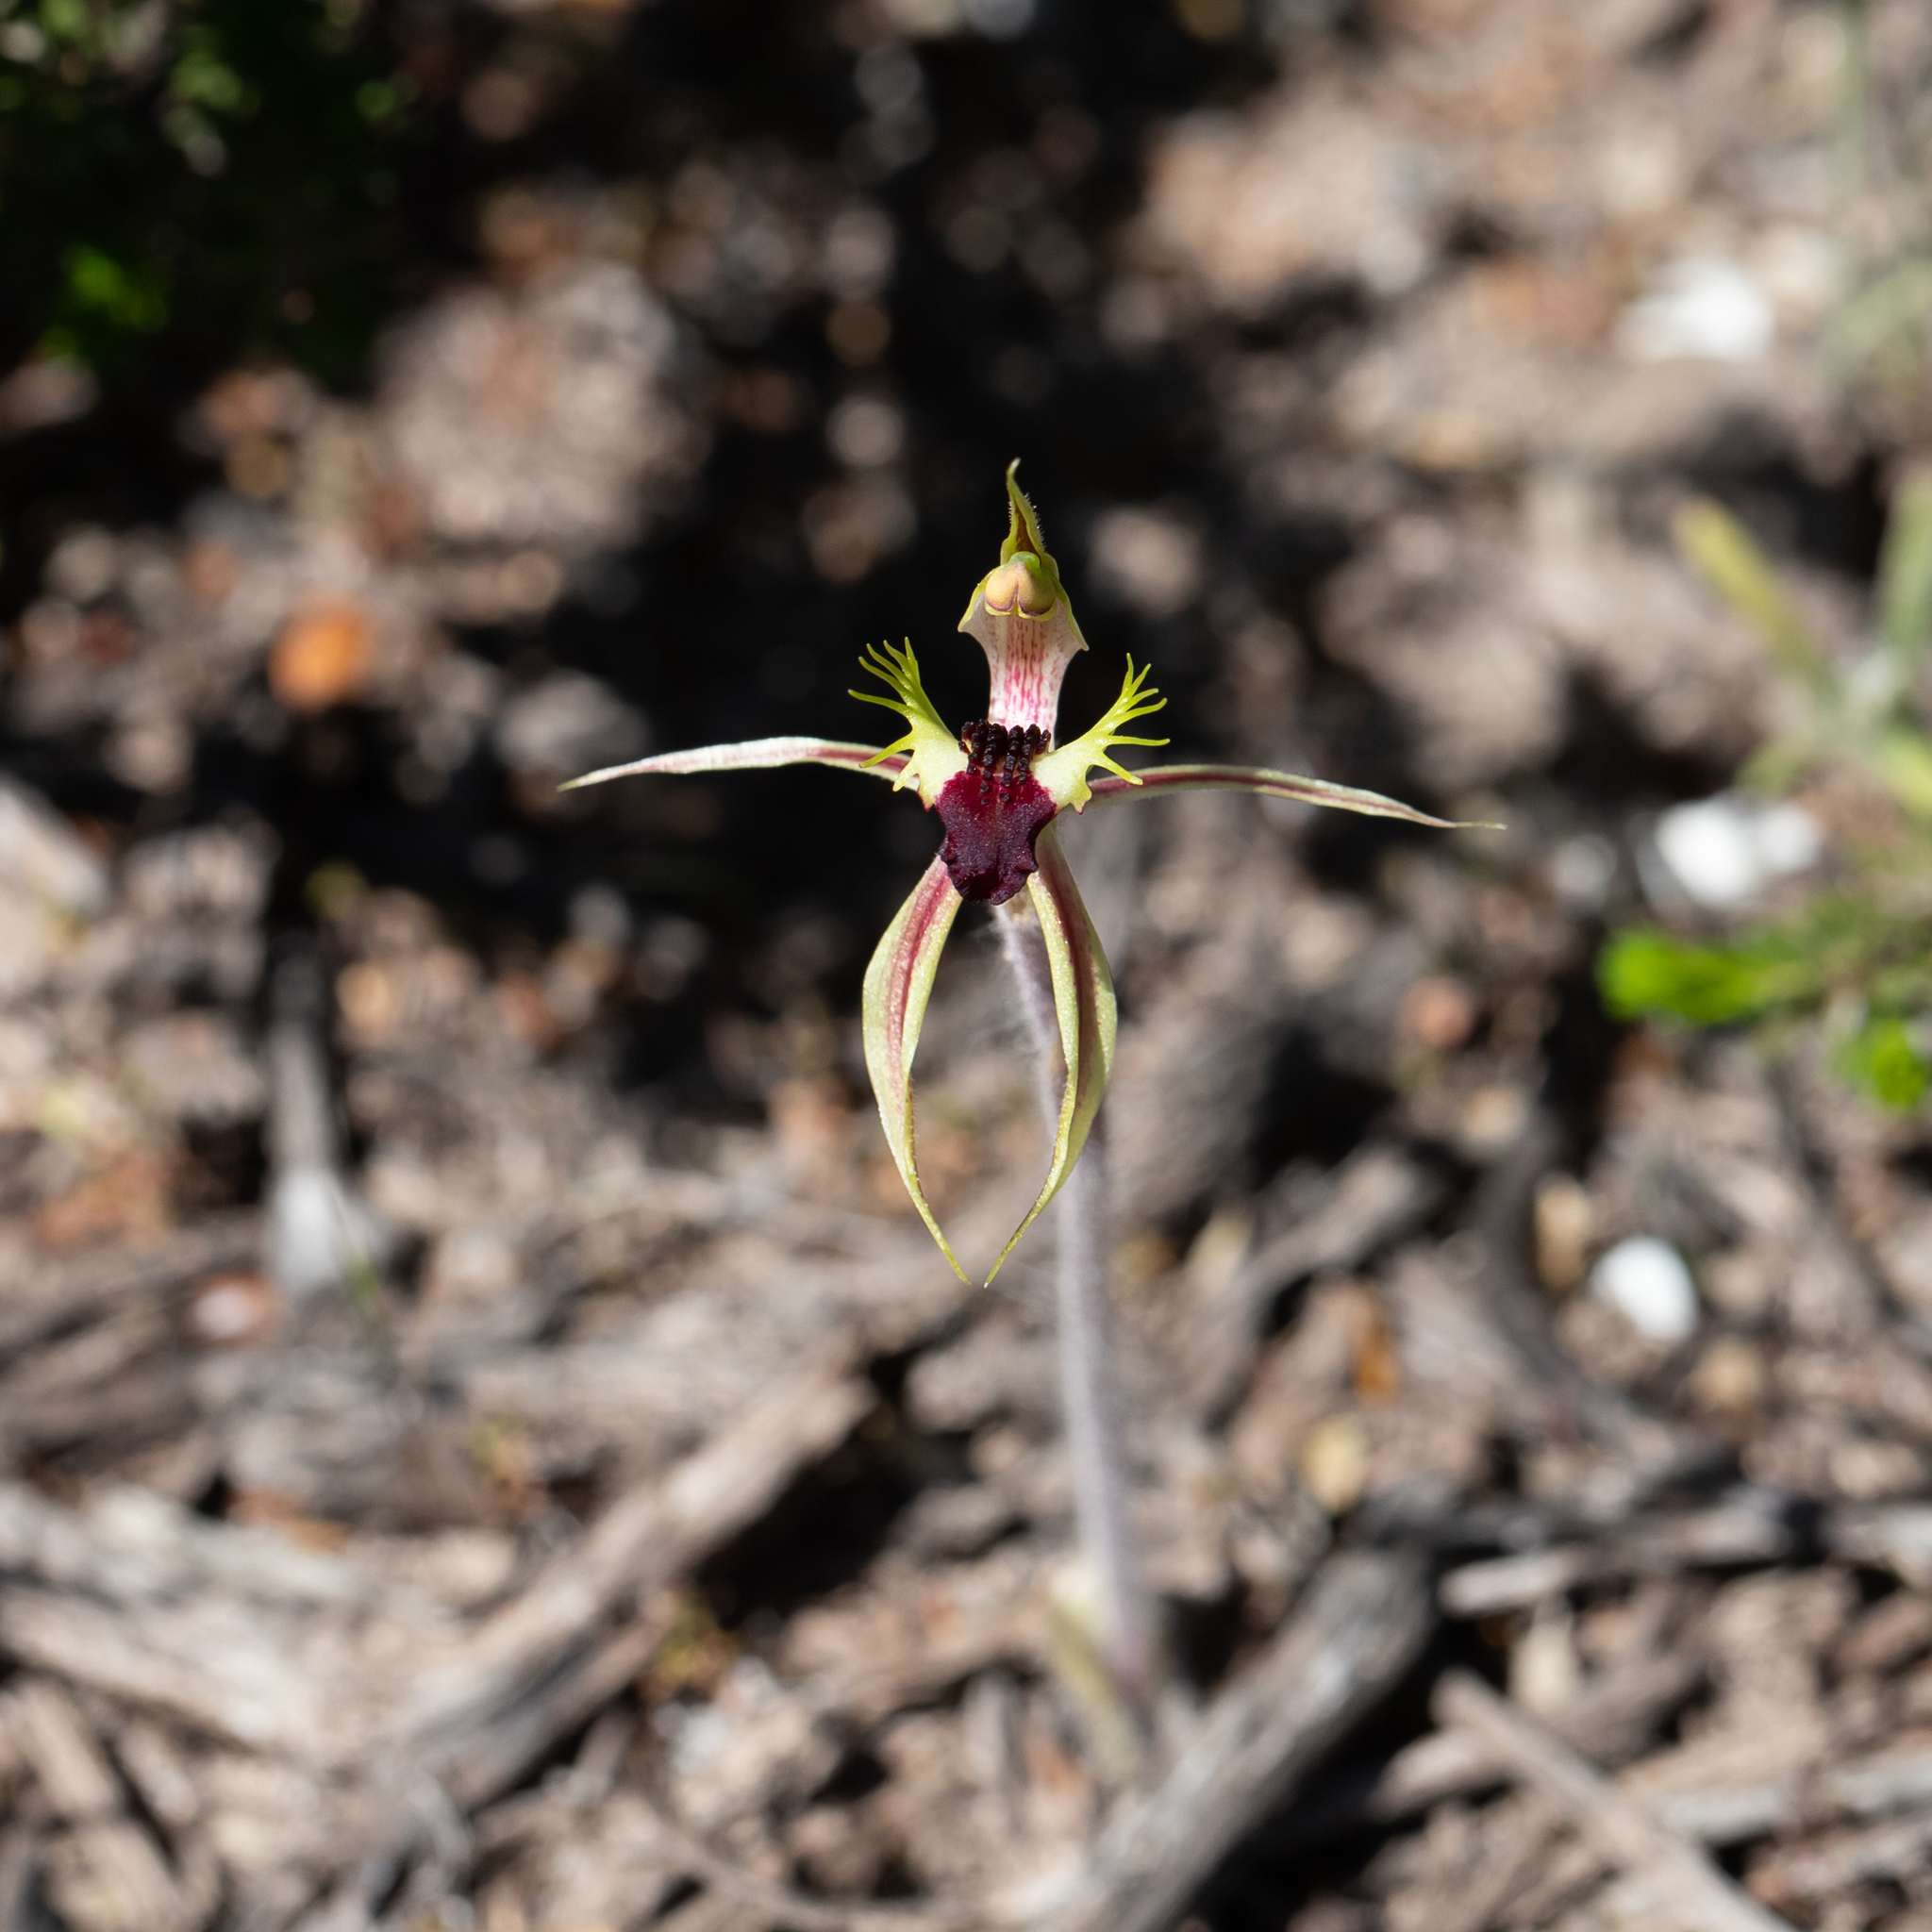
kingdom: Plantae
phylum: Tracheophyta
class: Liliopsida
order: Asparagales
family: Orchidaceae
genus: Caladenia
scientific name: Caladenia stricta
